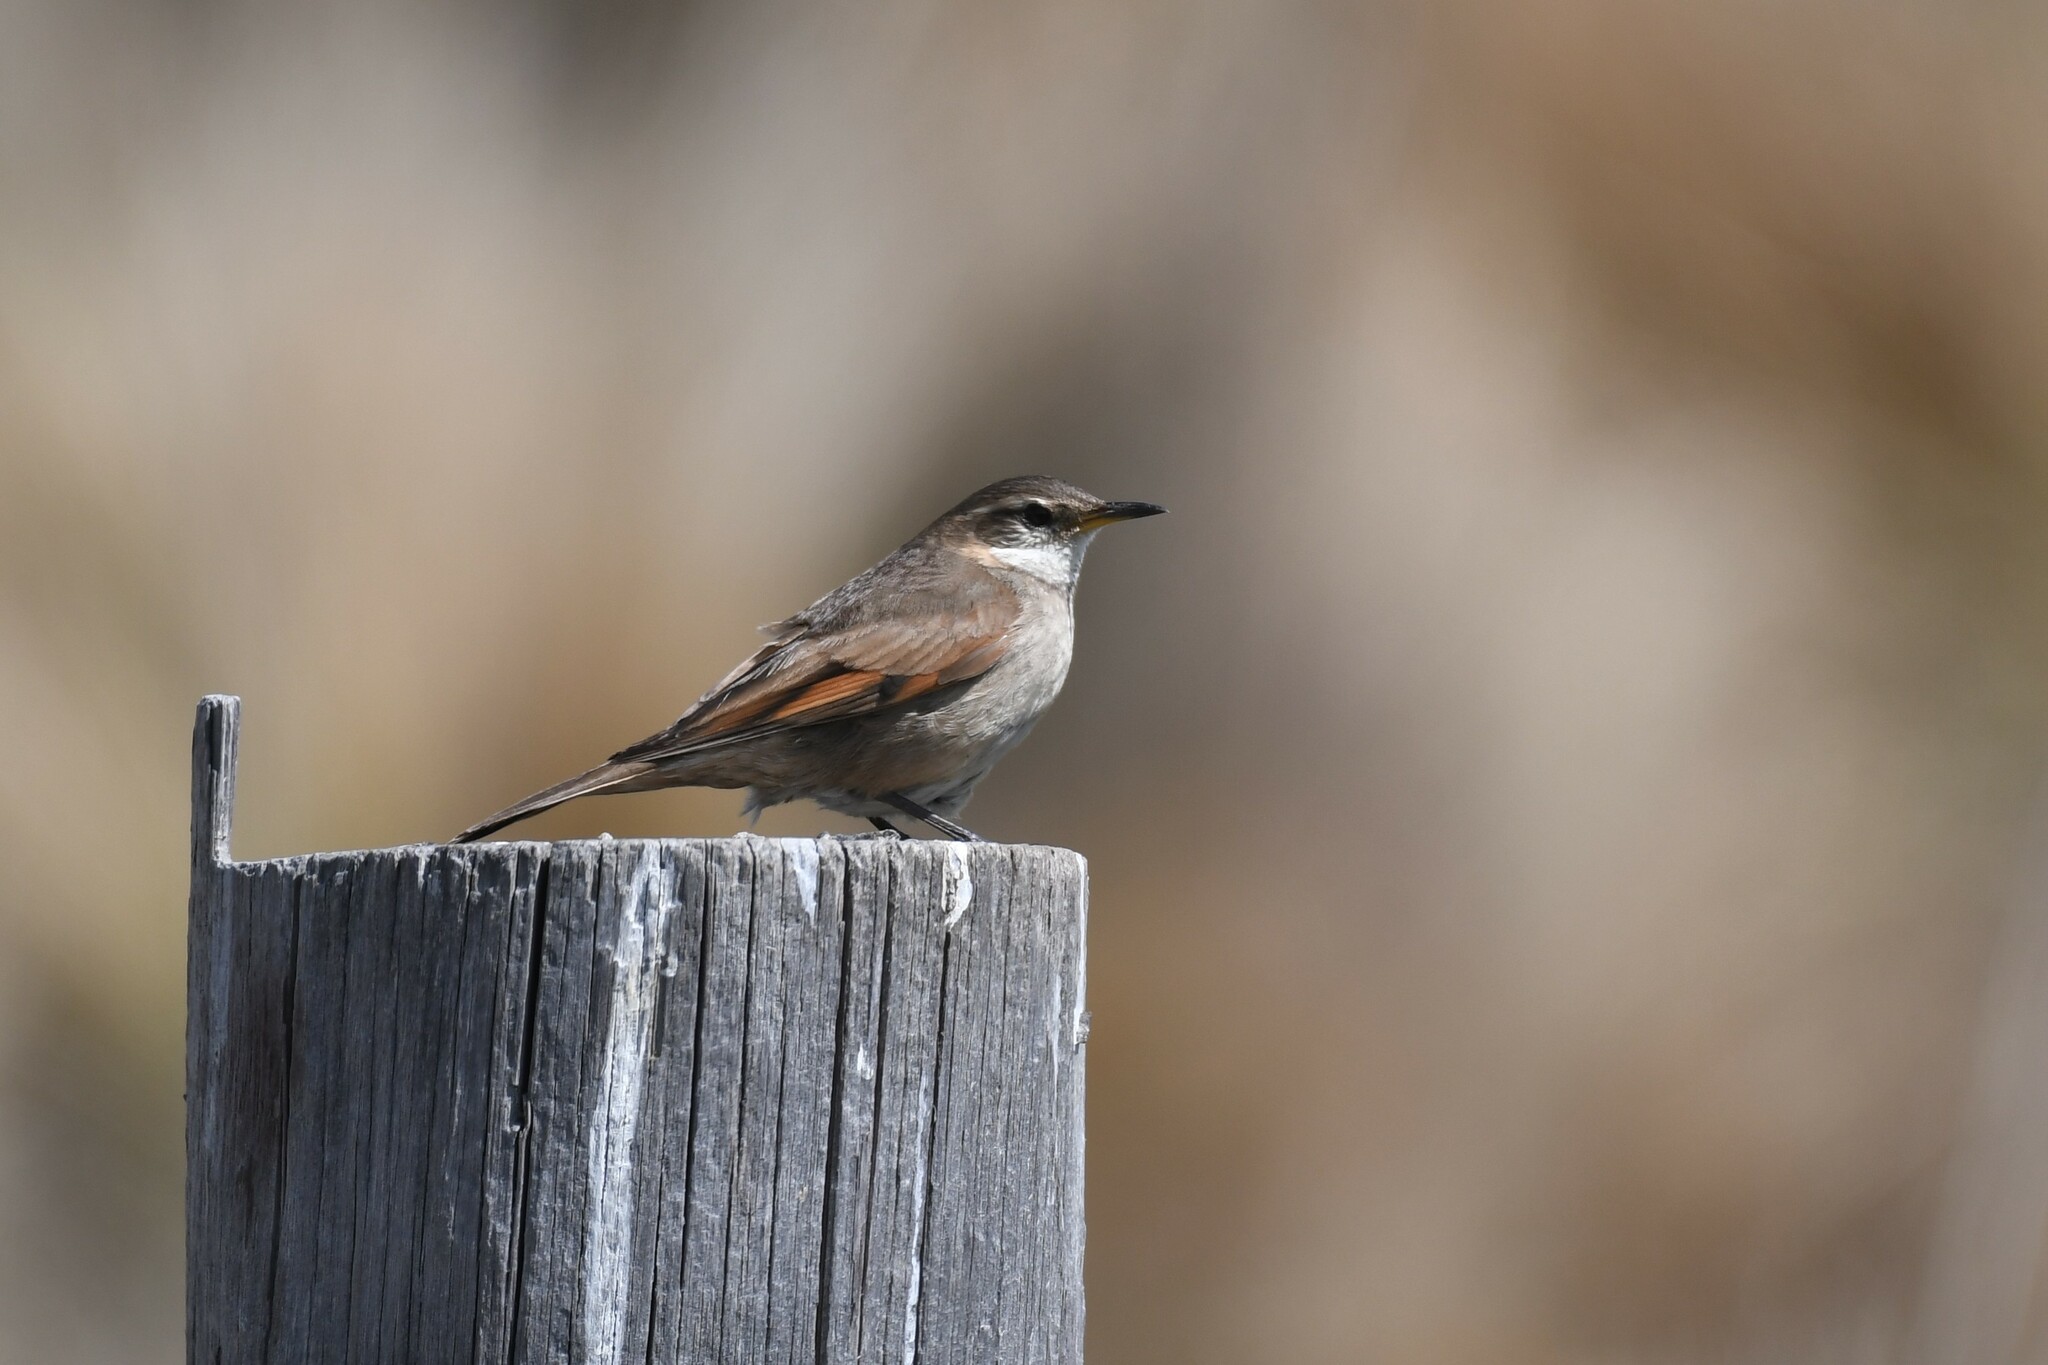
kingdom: Animalia
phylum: Chordata
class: Aves
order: Passeriformes
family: Furnariidae
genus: Cinclodes
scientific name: Cinclodes comechingonus
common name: Cordoba cinclodes
